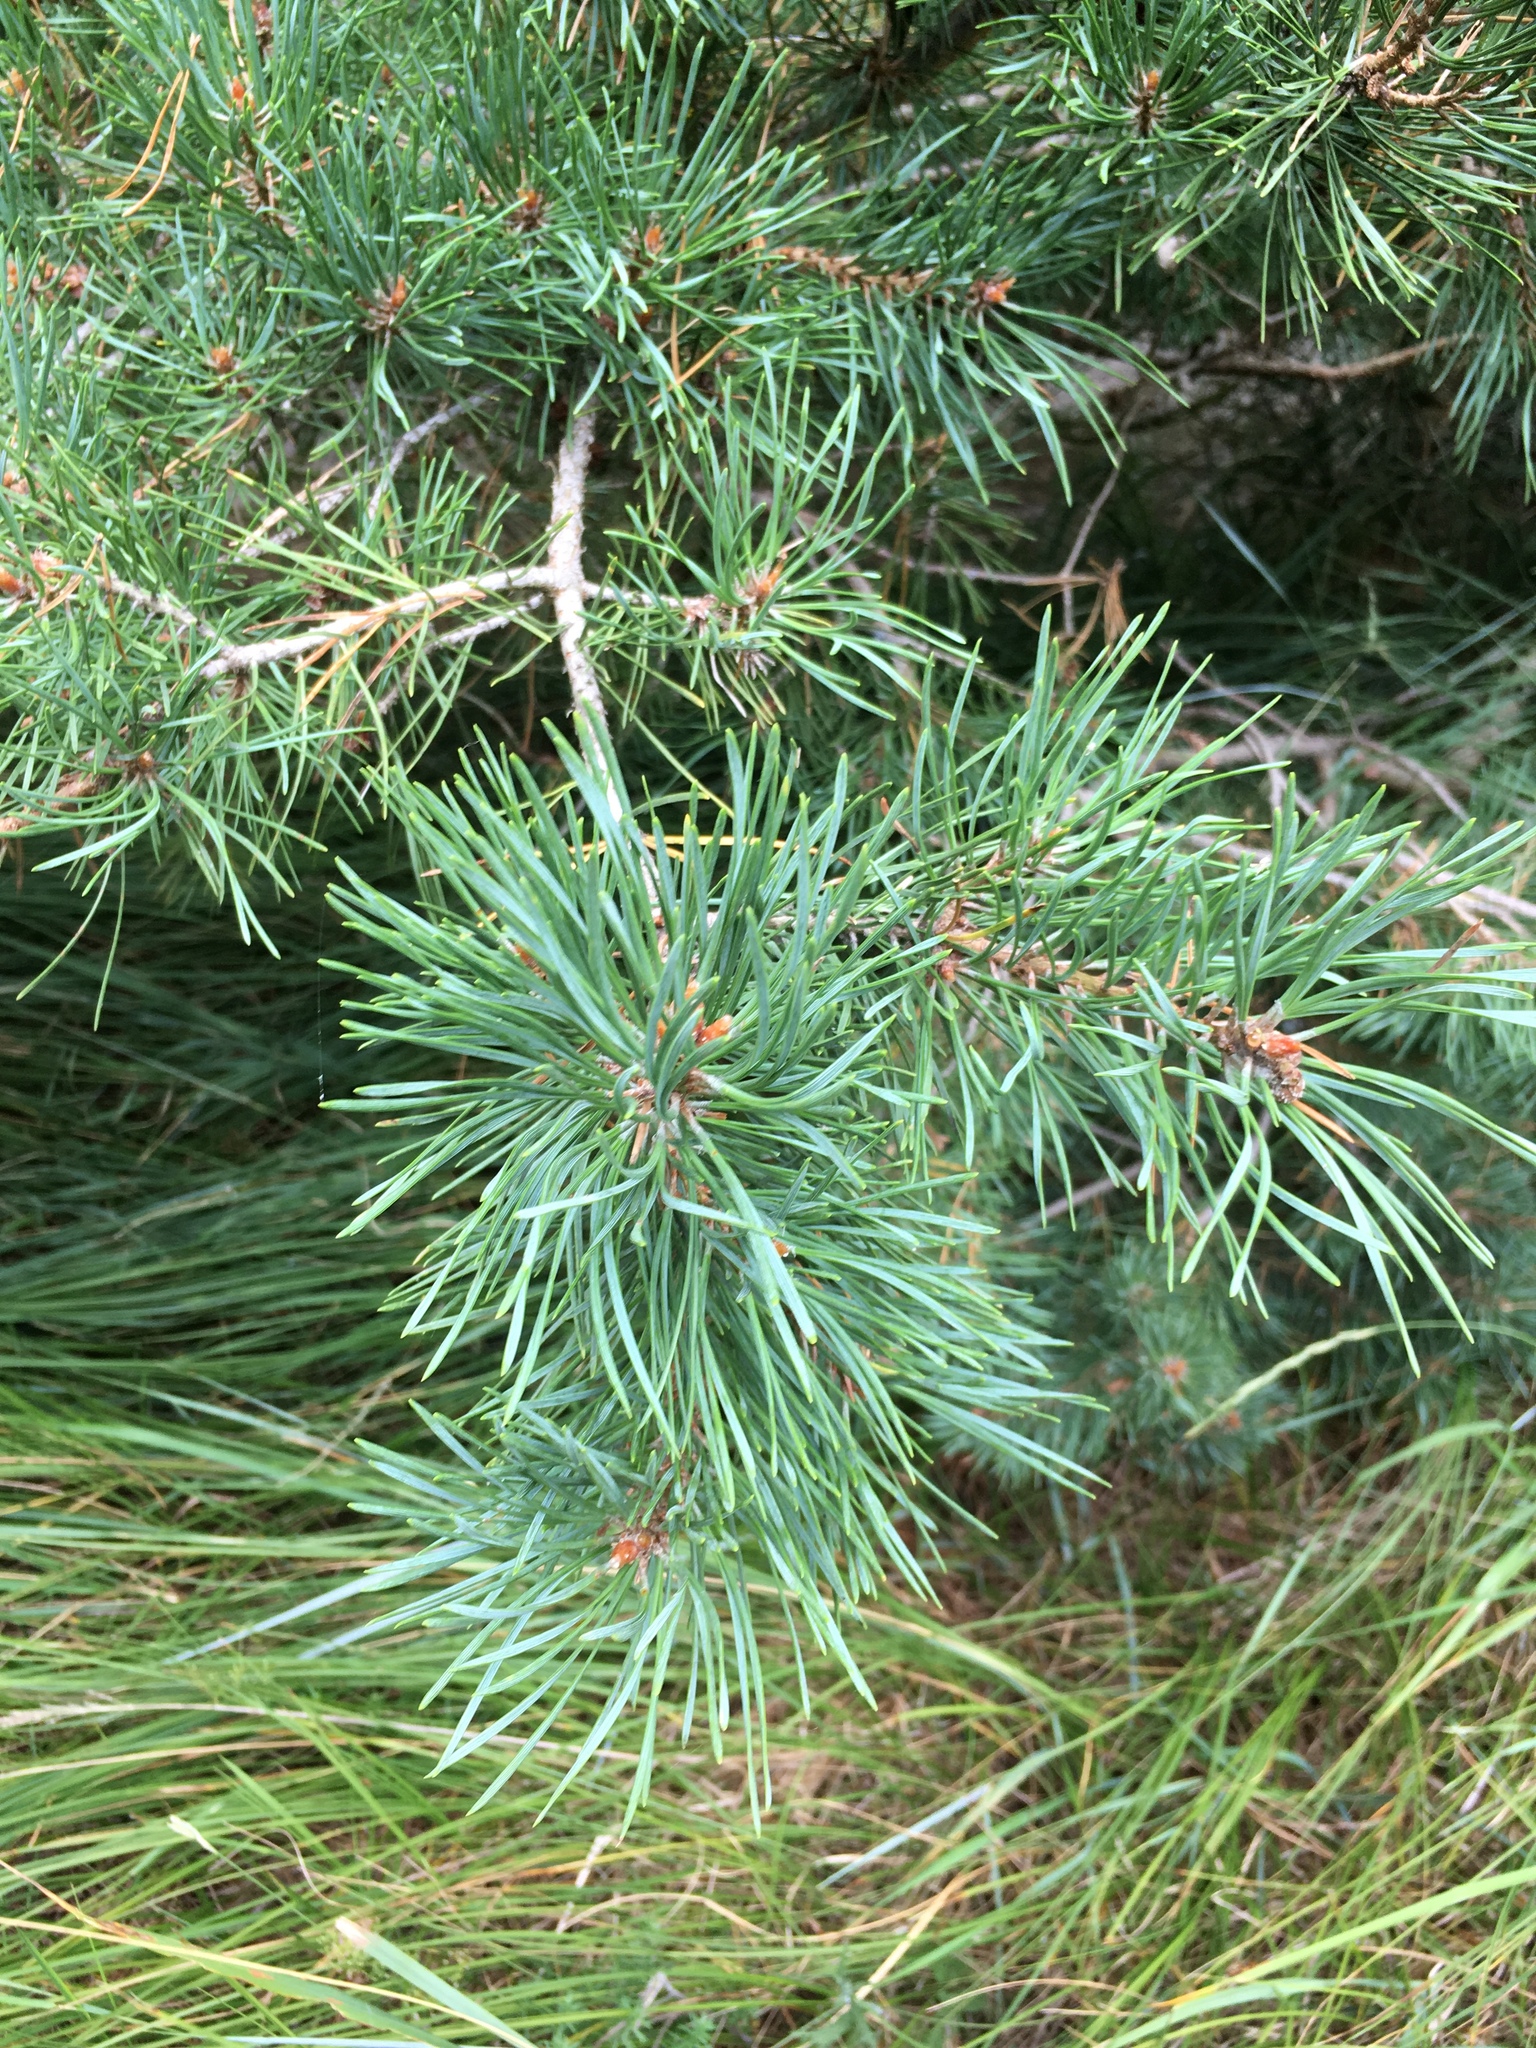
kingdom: Plantae
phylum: Tracheophyta
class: Pinopsida
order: Pinales
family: Pinaceae
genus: Pinus
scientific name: Pinus sylvestris
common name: Scots pine
